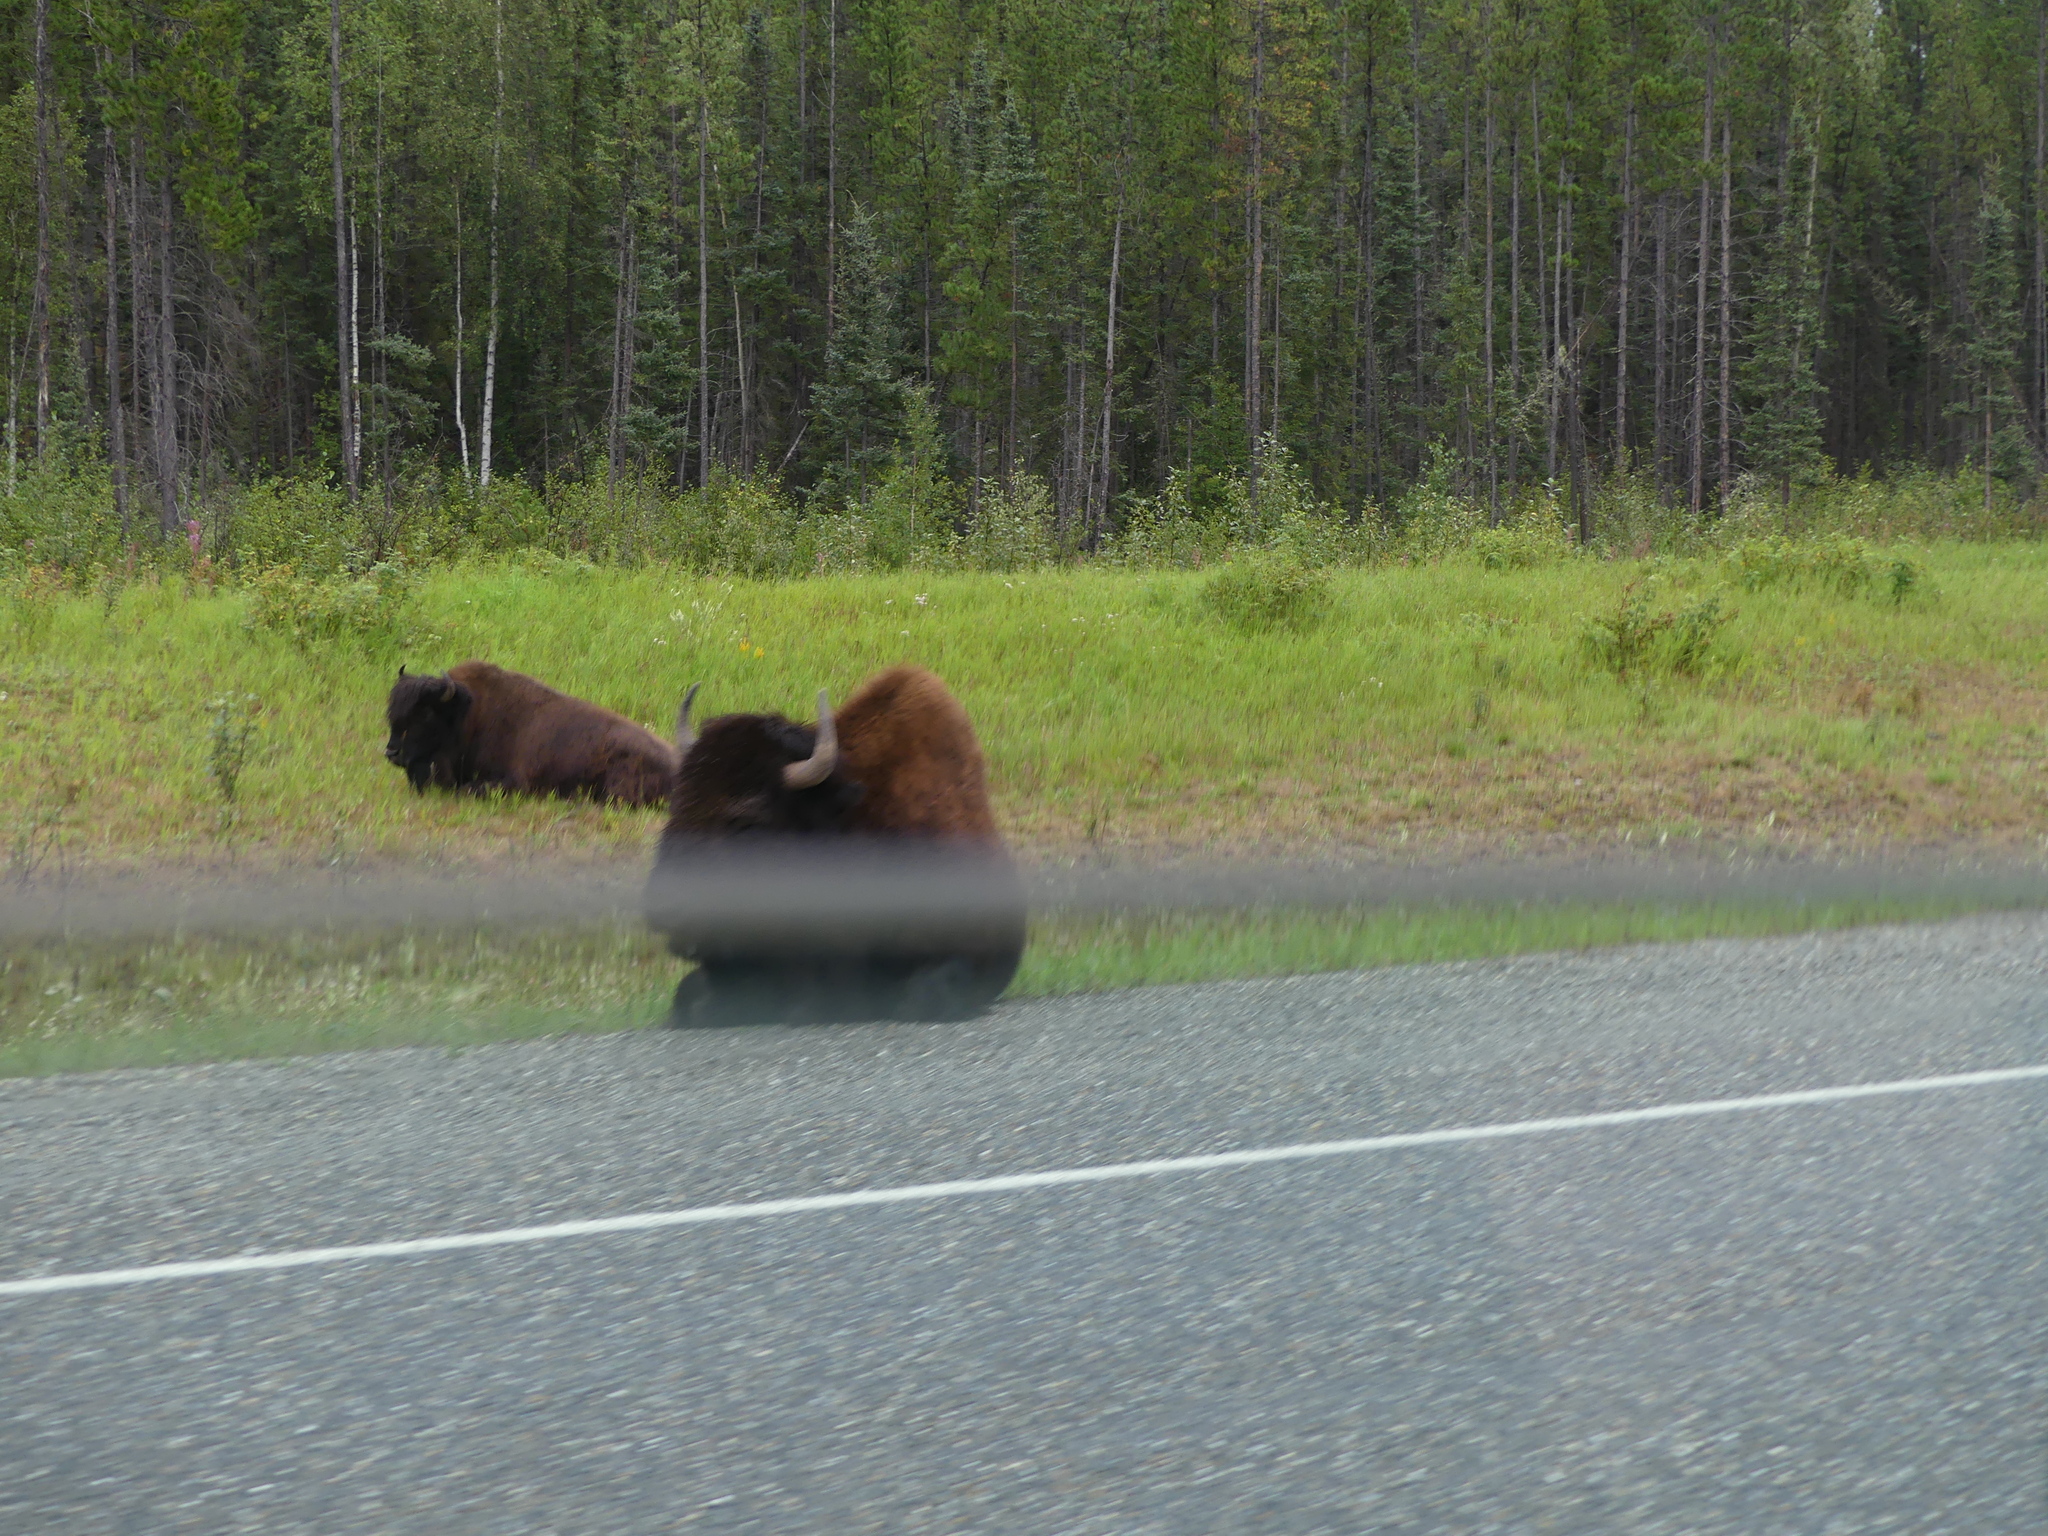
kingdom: Animalia
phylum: Chordata
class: Mammalia
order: Artiodactyla
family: Bovidae
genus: Bison
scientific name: Bison bison
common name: American bison
